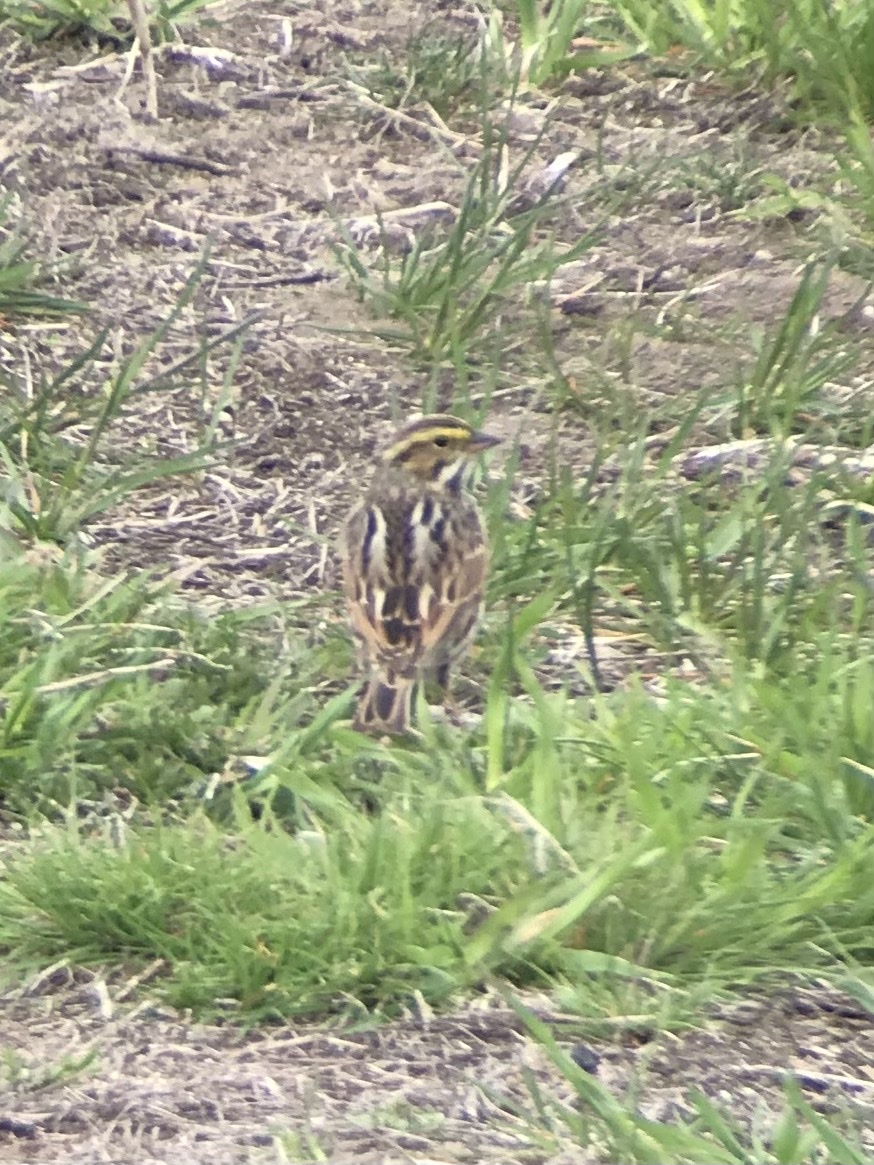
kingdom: Animalia
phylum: Chordata
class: Aves
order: Passeriformes
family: Passerellidae
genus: Passerculus
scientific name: Passerculus sandwichensis
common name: Savannah sparrow
